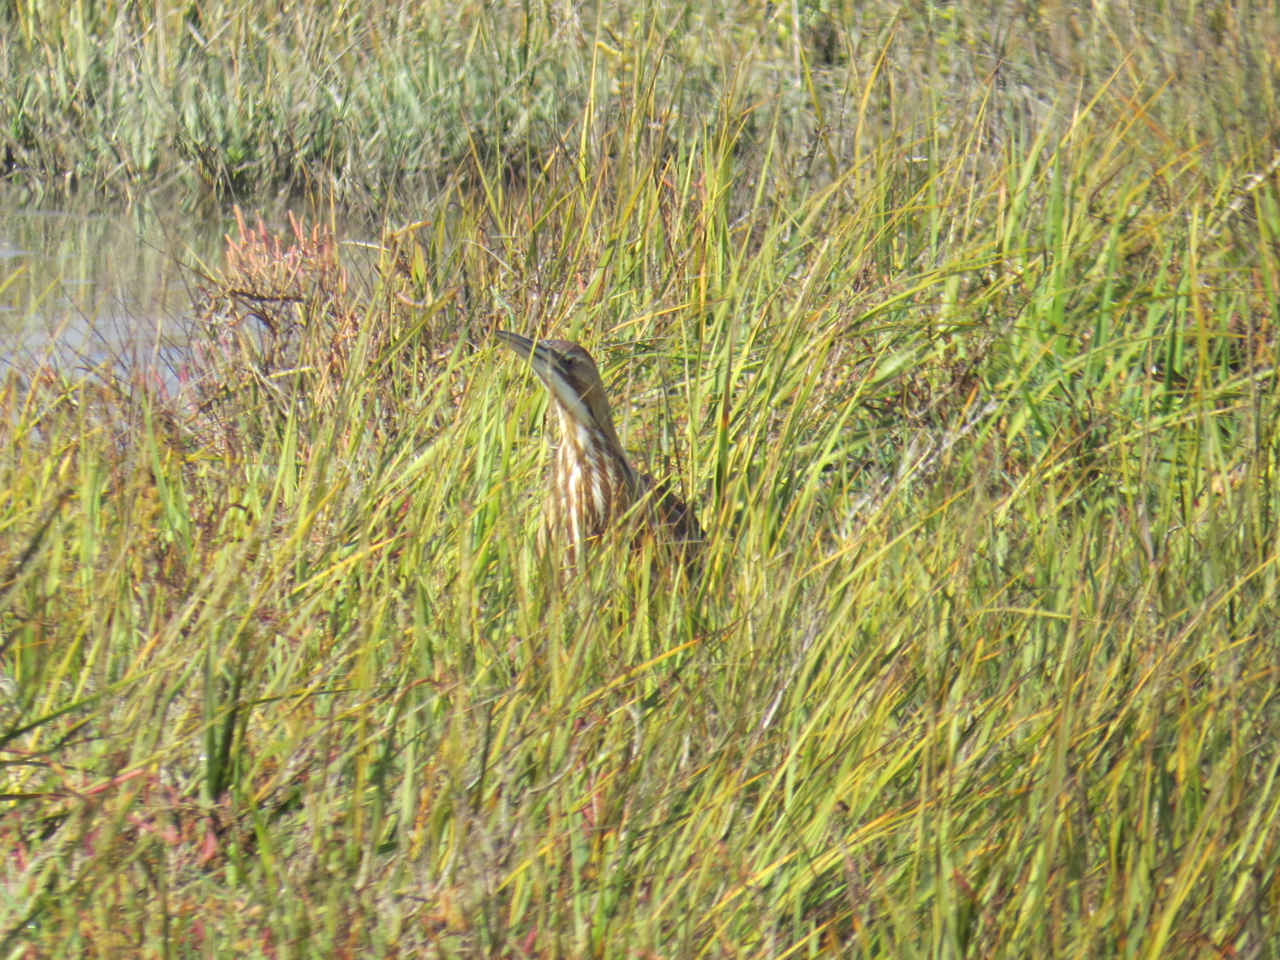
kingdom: Animalia
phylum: Chordata
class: Aves
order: Pelecaniformes
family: Ardeidae
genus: Botaurus
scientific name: Botaurus lentiginosus
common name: American bittern
